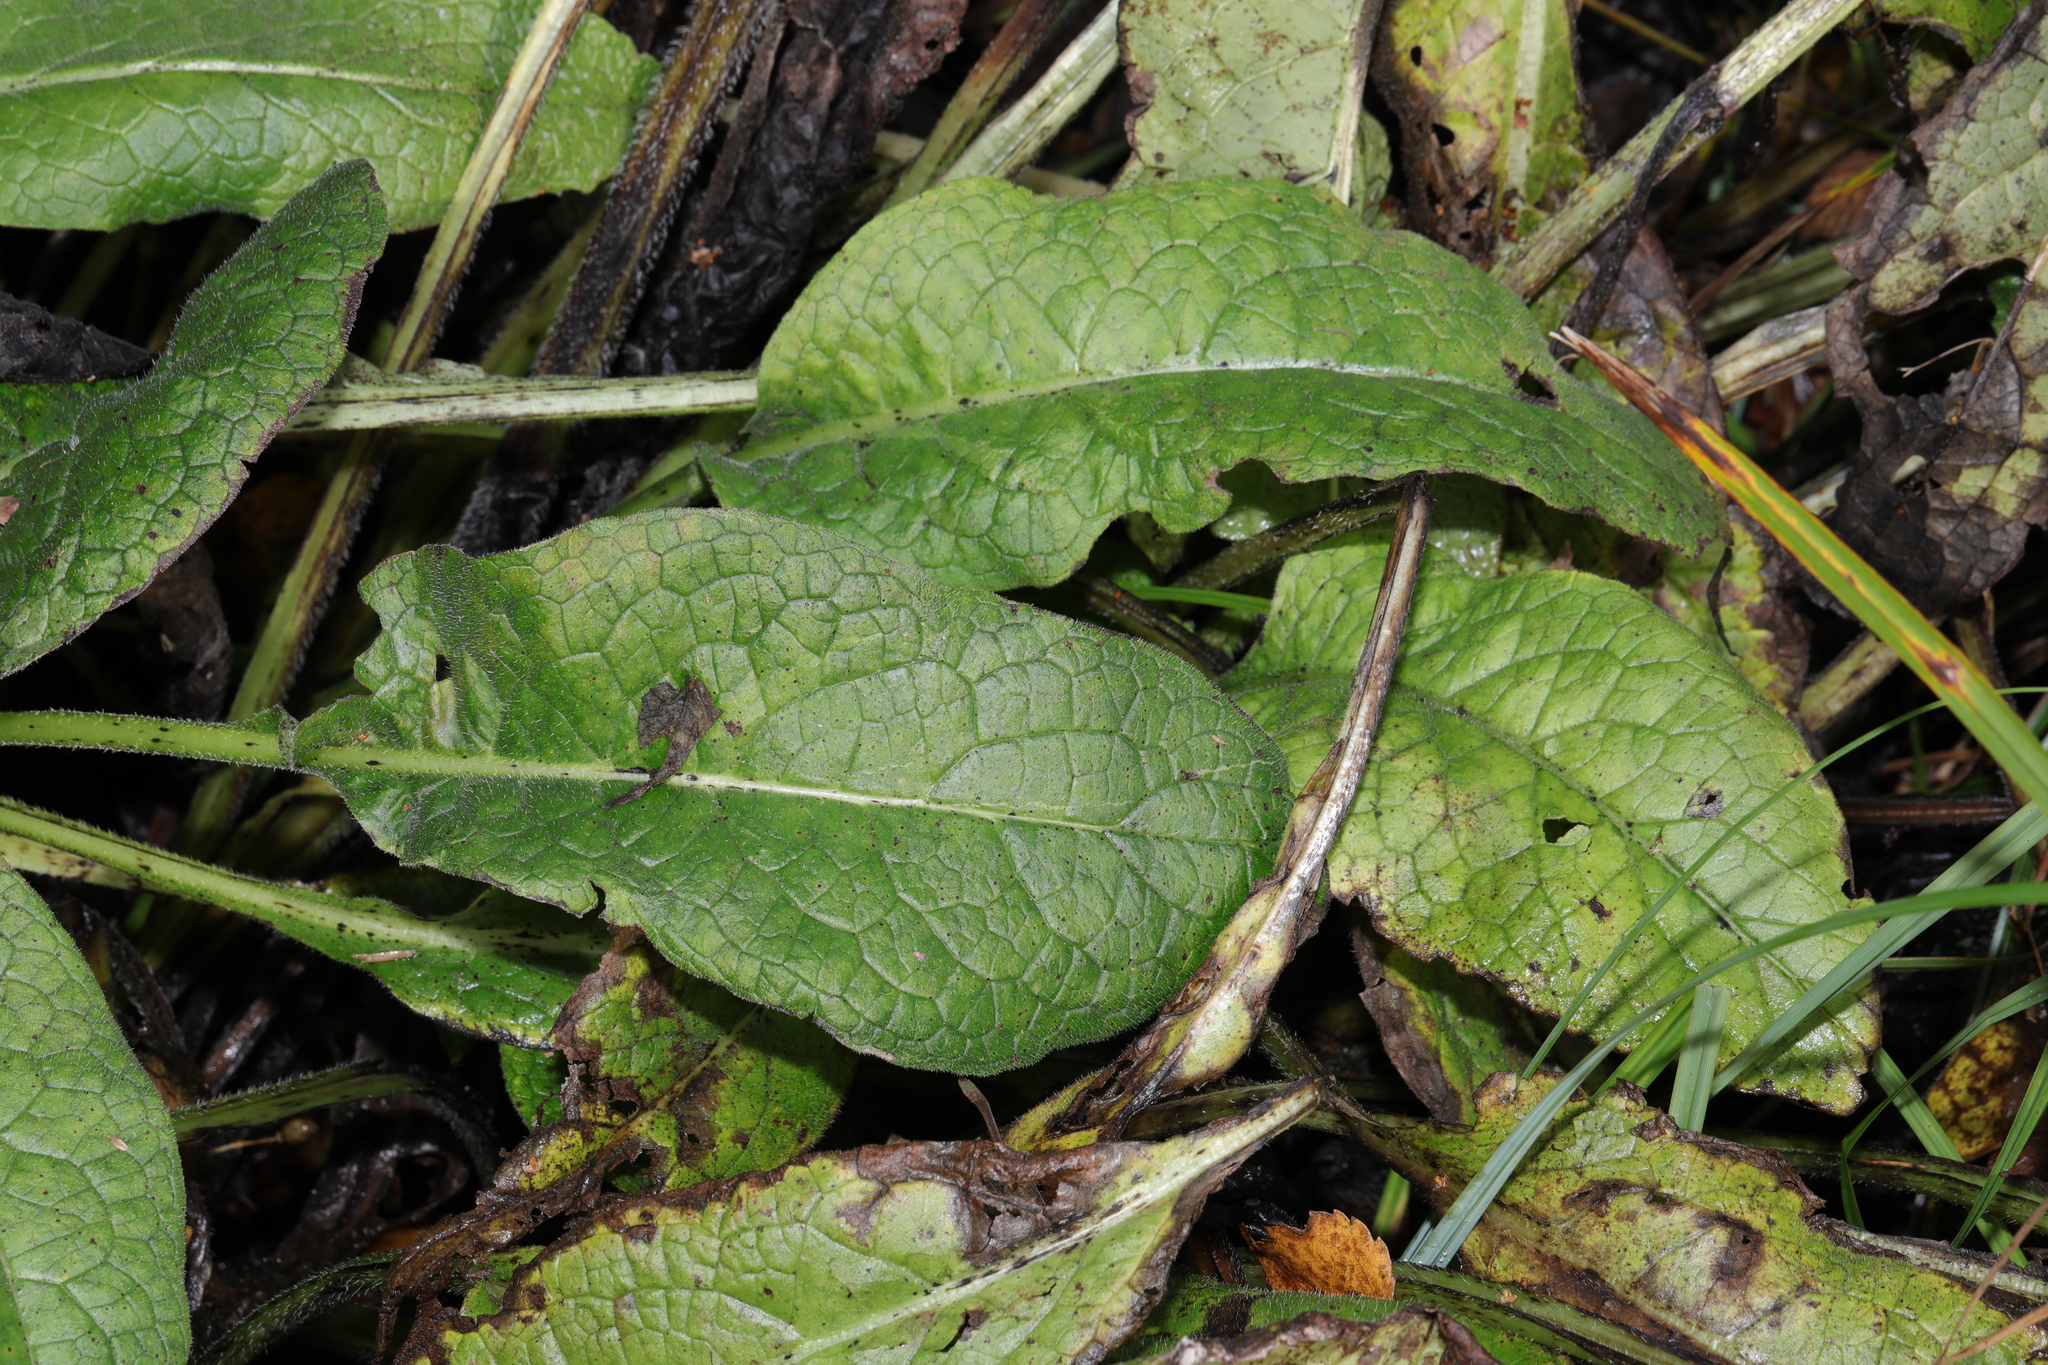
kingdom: Plantae
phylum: Tracheophyta
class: Magnoliopsida
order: Boraginales
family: Boraginaceae
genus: Symphytum
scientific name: Symphytum officinale
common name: Common comfrey
